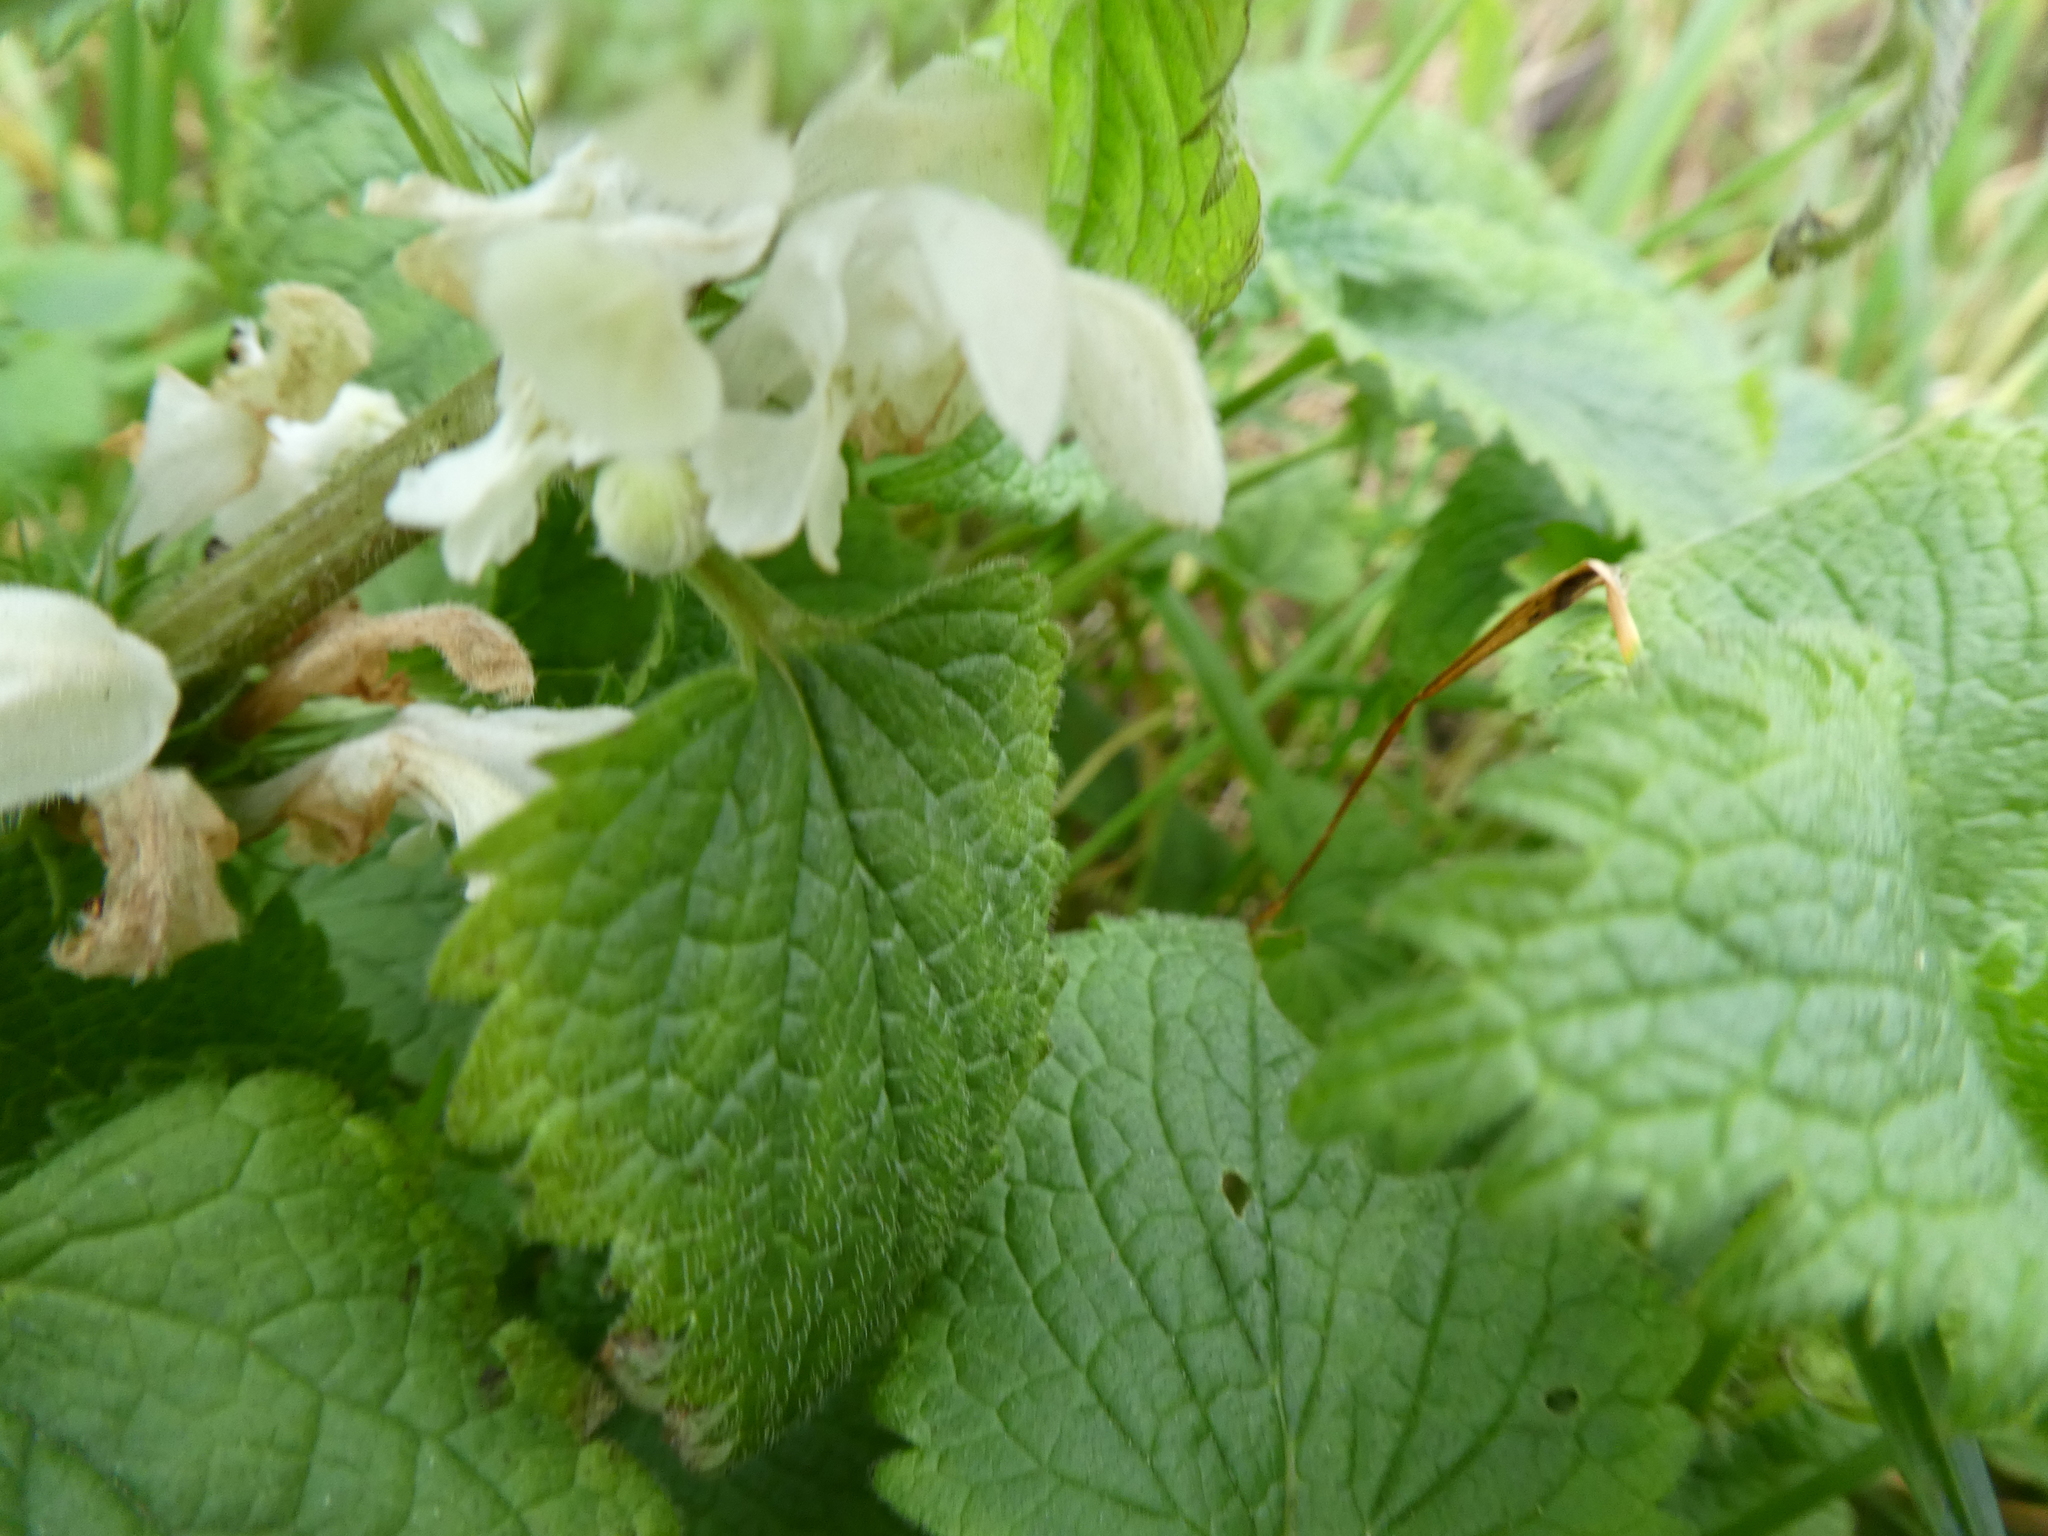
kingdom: Plantae
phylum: Tracheophyta
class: Magnoliopsida
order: Lamiales
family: Lamiaceae
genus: Lamium
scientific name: Lamium album
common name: White dead-nettle
